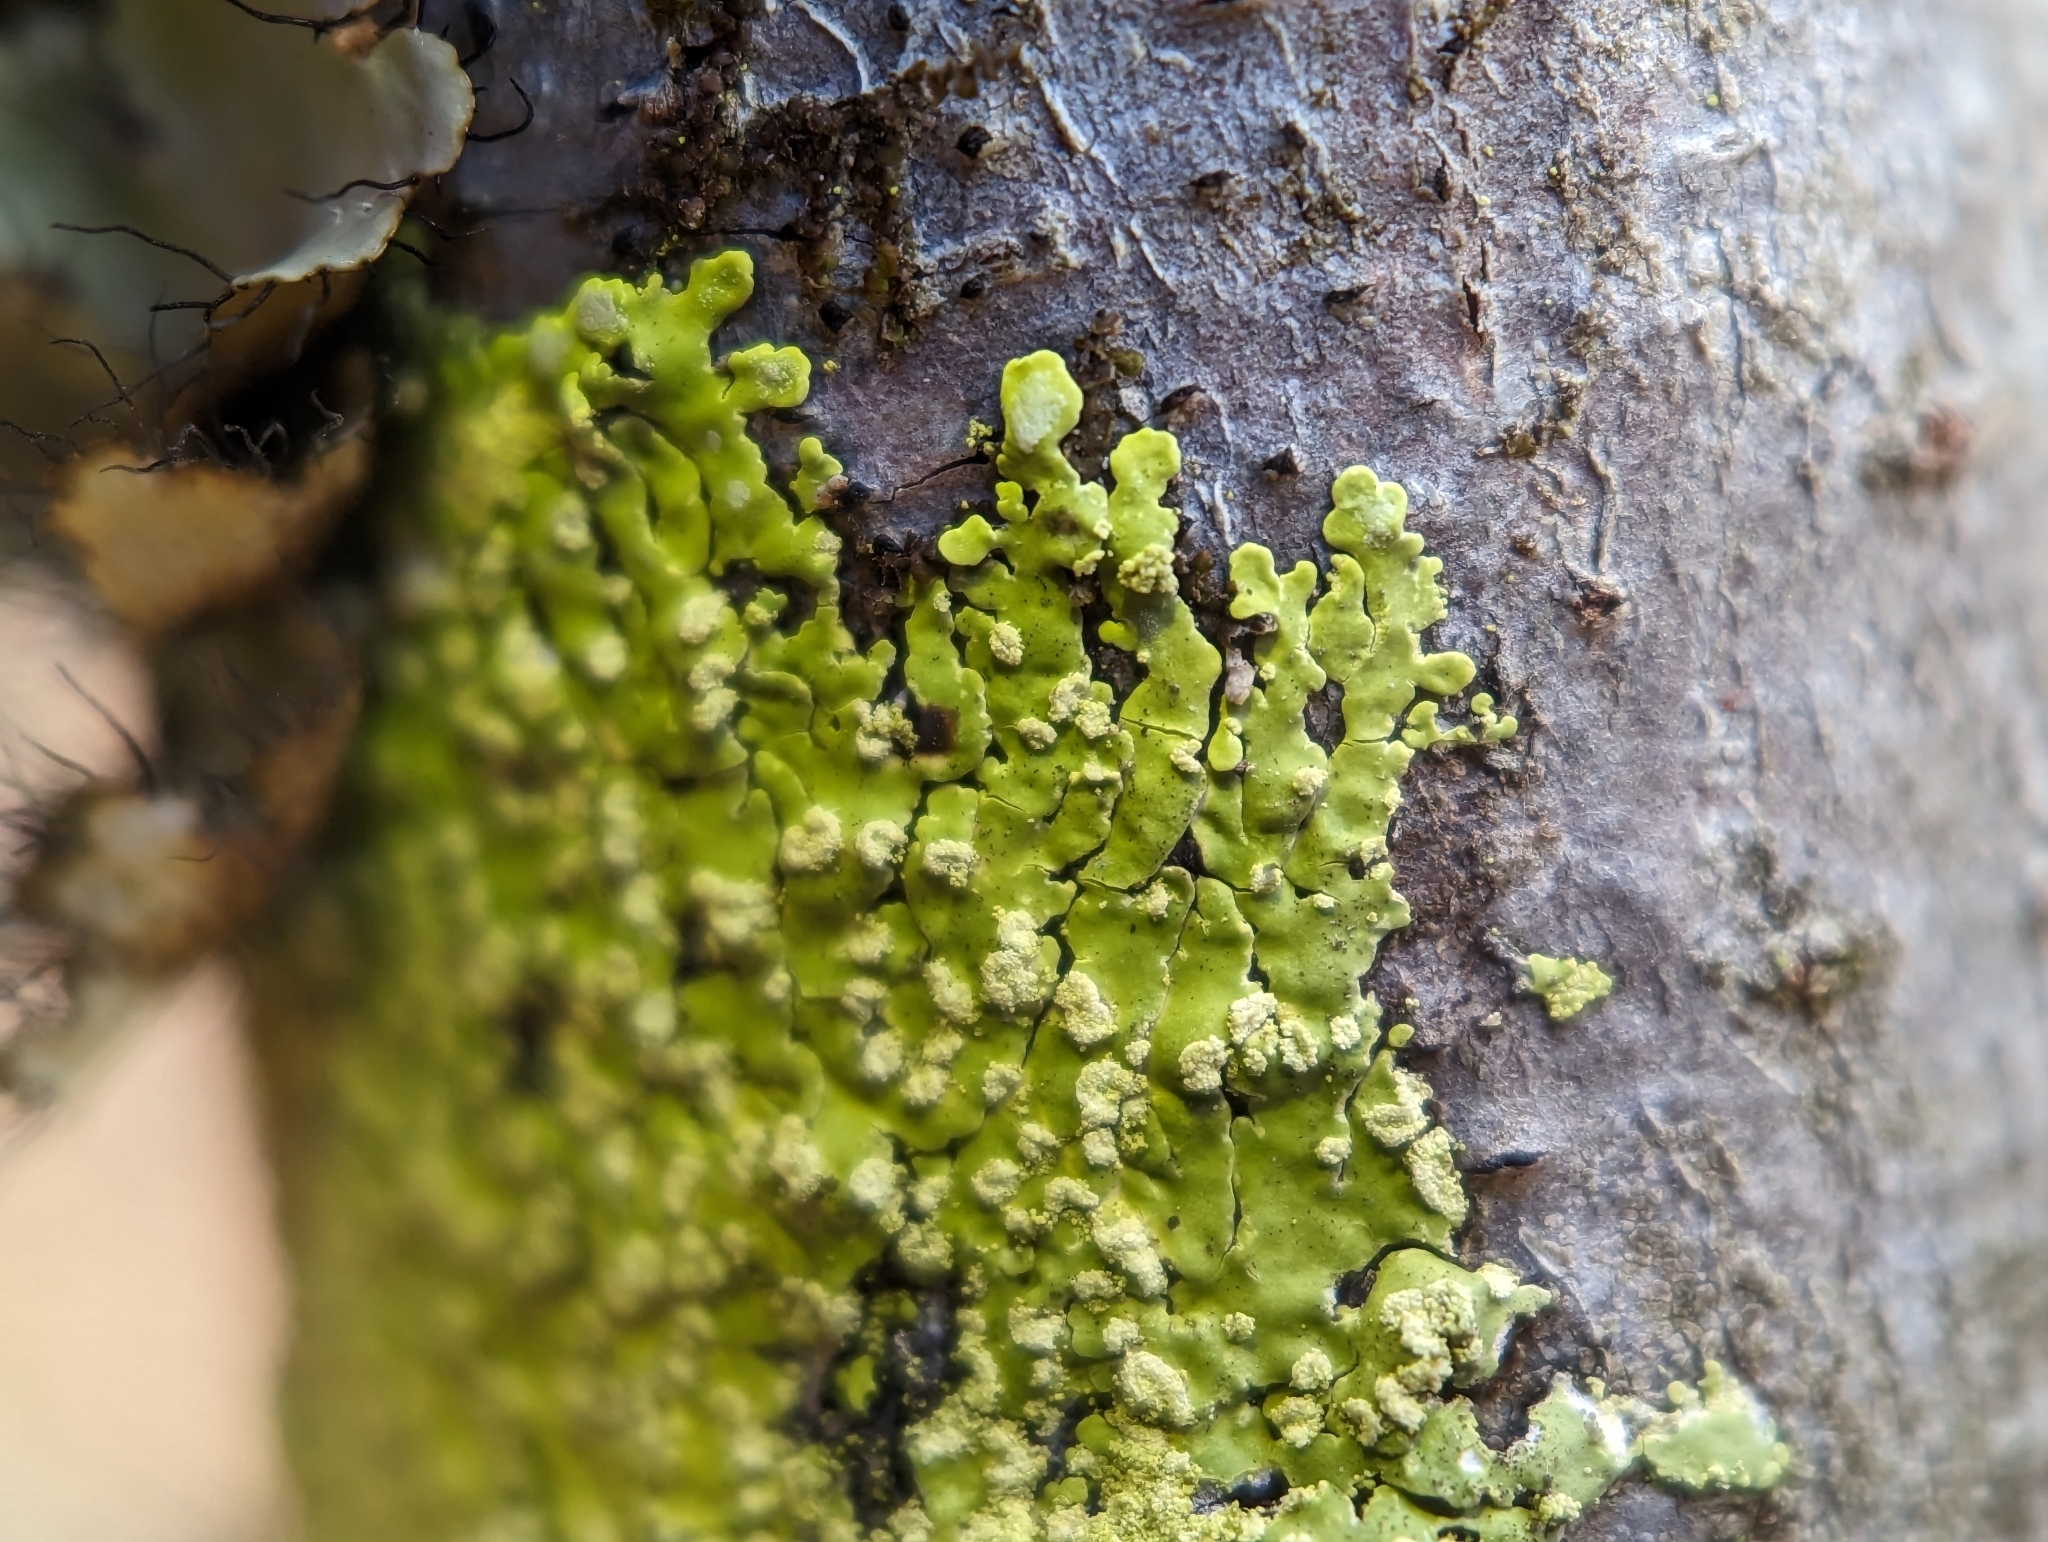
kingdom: Fungi
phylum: Ascomycota
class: Lecanoromycetes
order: Caliciales
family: Caliciaceae
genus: Pyxine
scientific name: Pyxine subcinerea
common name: Mustard lichen
